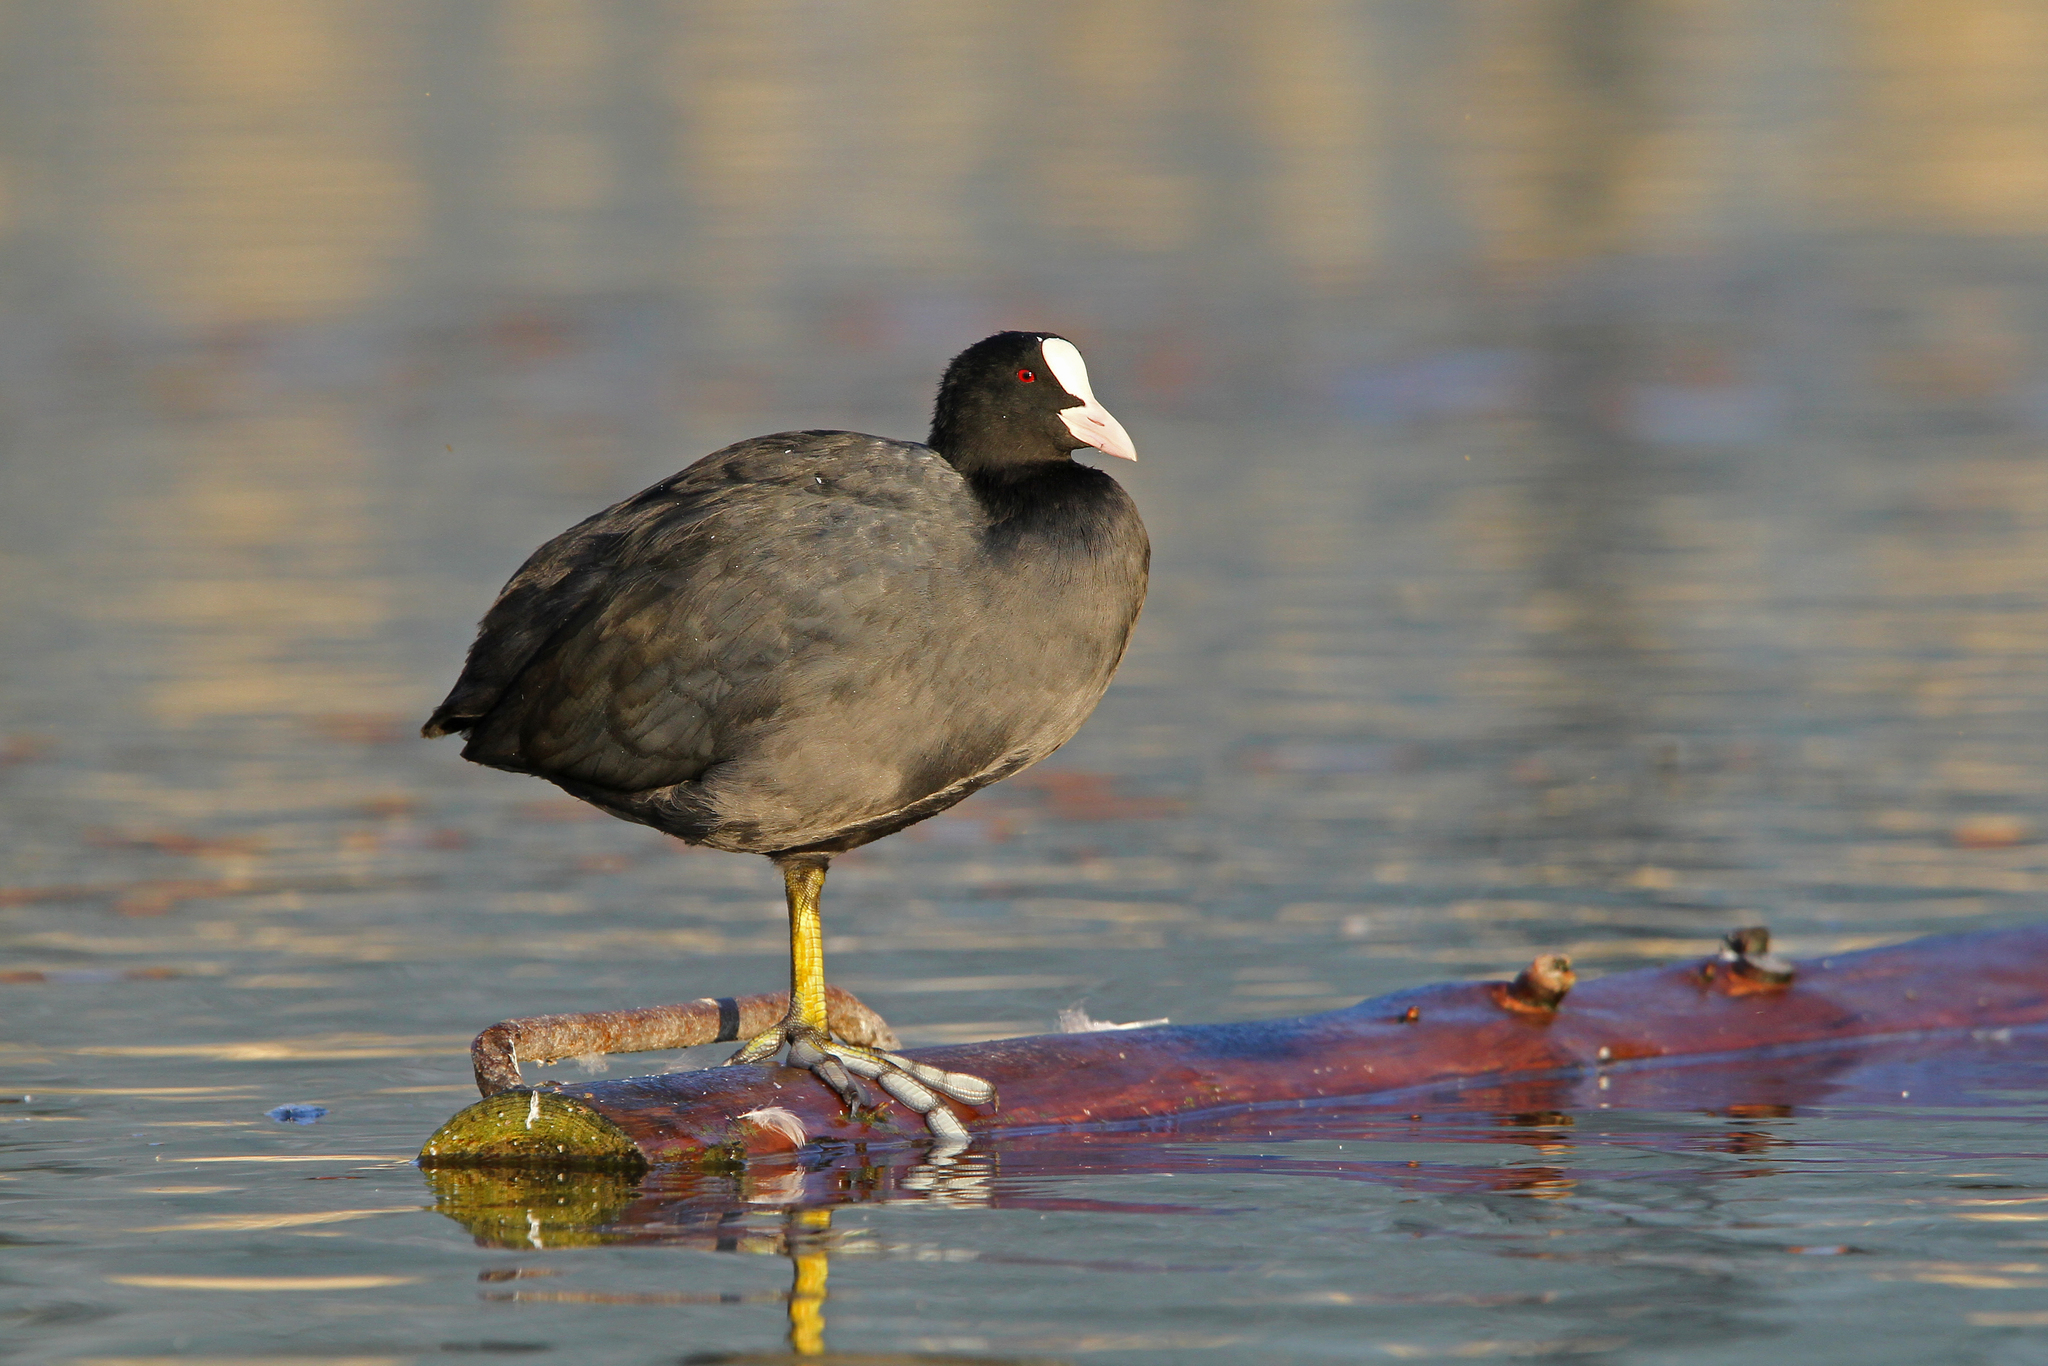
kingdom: Animalia
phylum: Chordata
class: Aves
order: Gruiformes
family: Rallidae
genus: Fulica
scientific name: Fulica atra
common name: Eurasian coot
